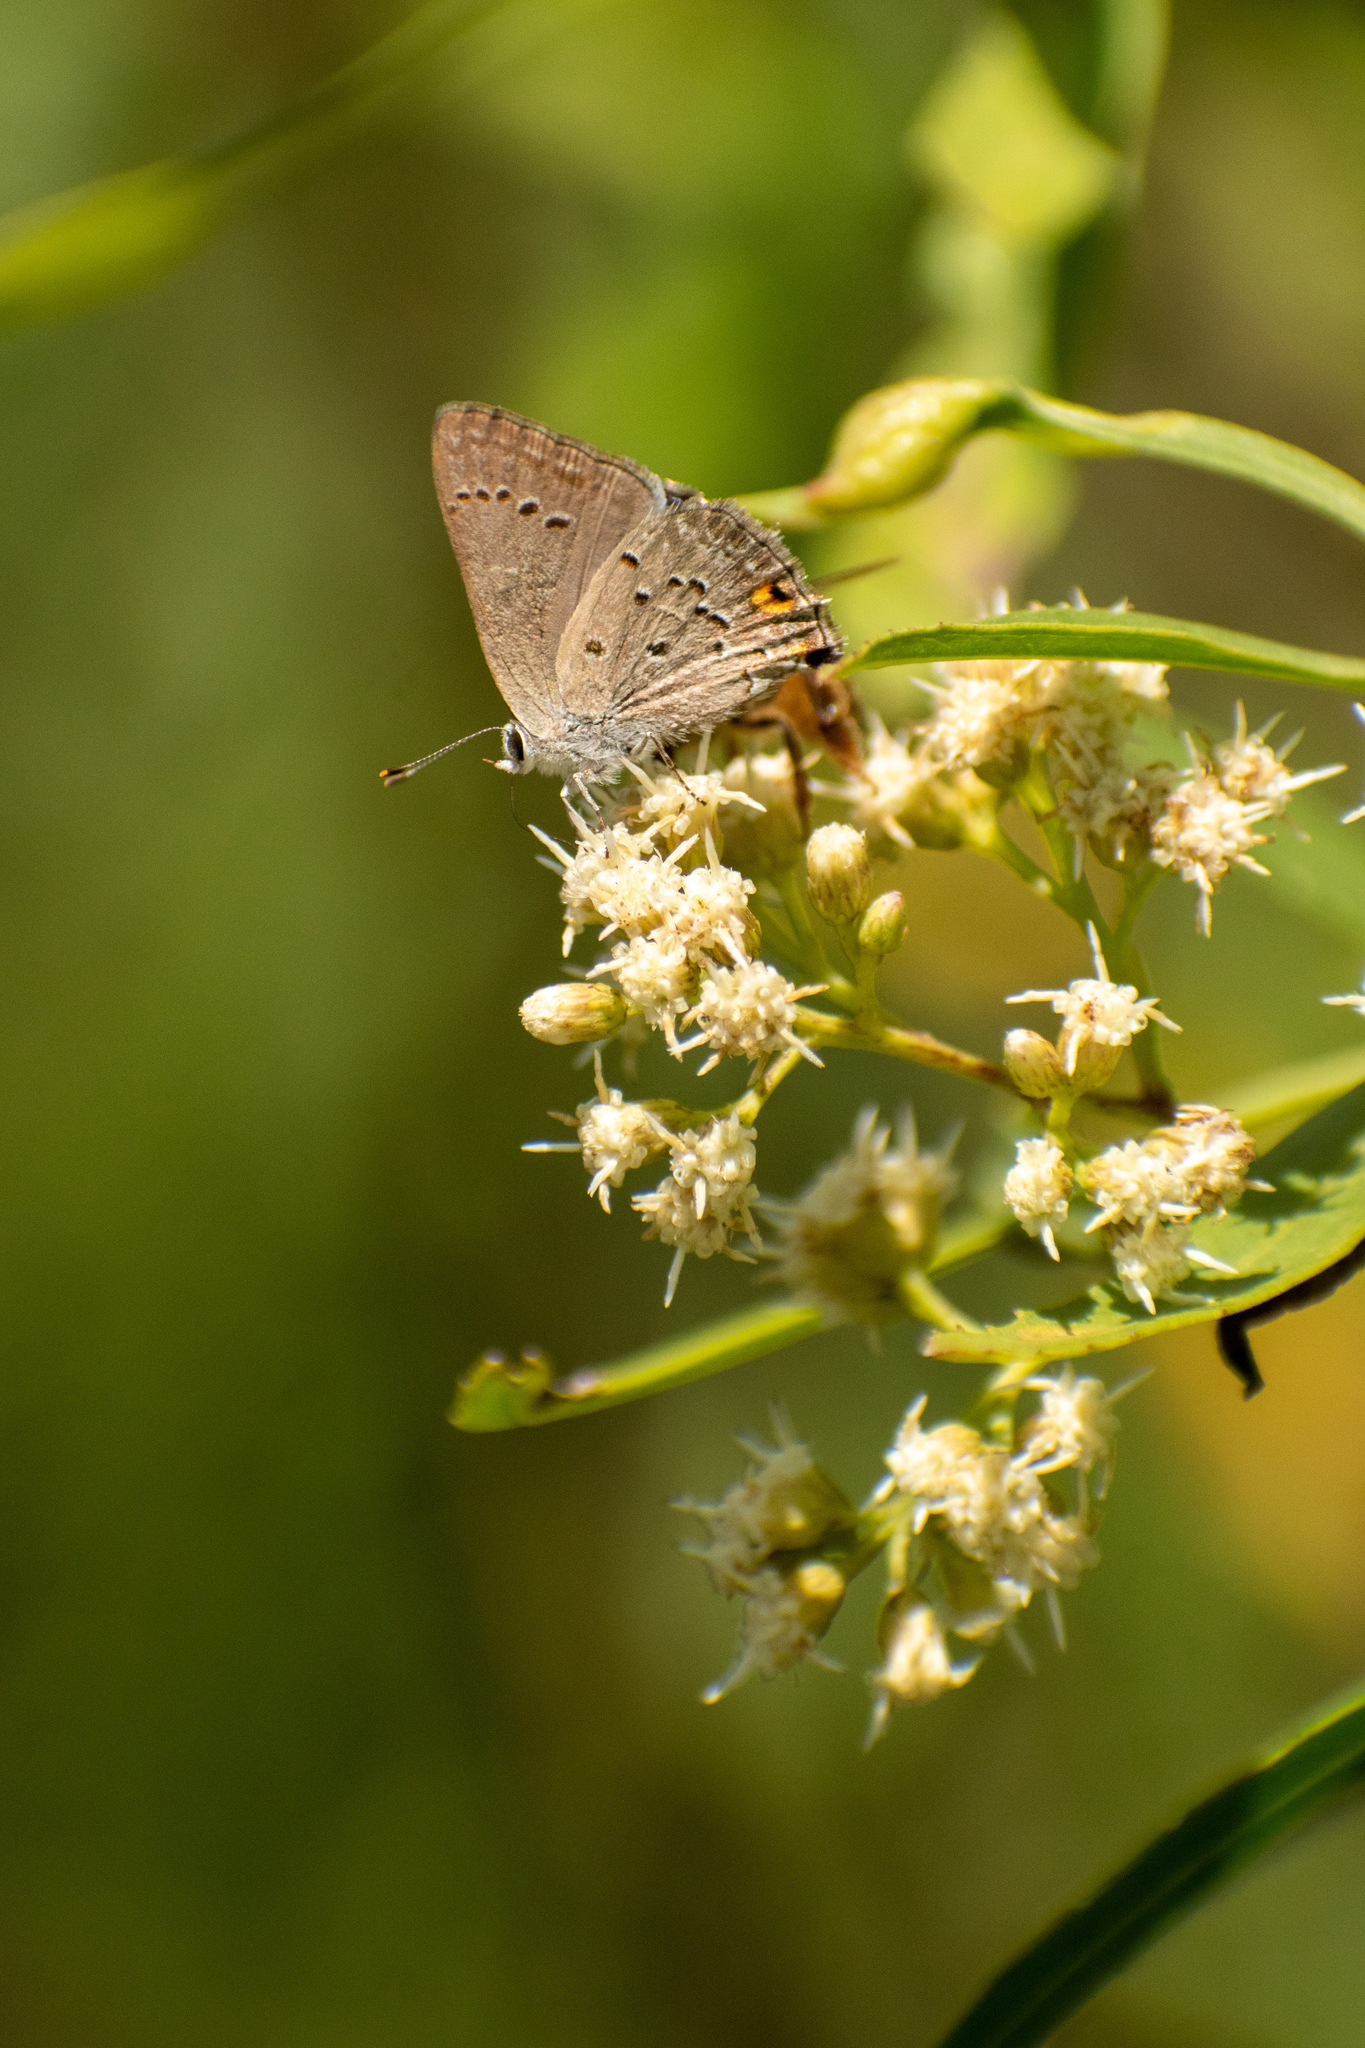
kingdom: Animalia
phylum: Arthropoda
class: Insecta
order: Lepidoptera
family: Lycaenidae
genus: Strymon
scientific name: Strymon eurytulus
